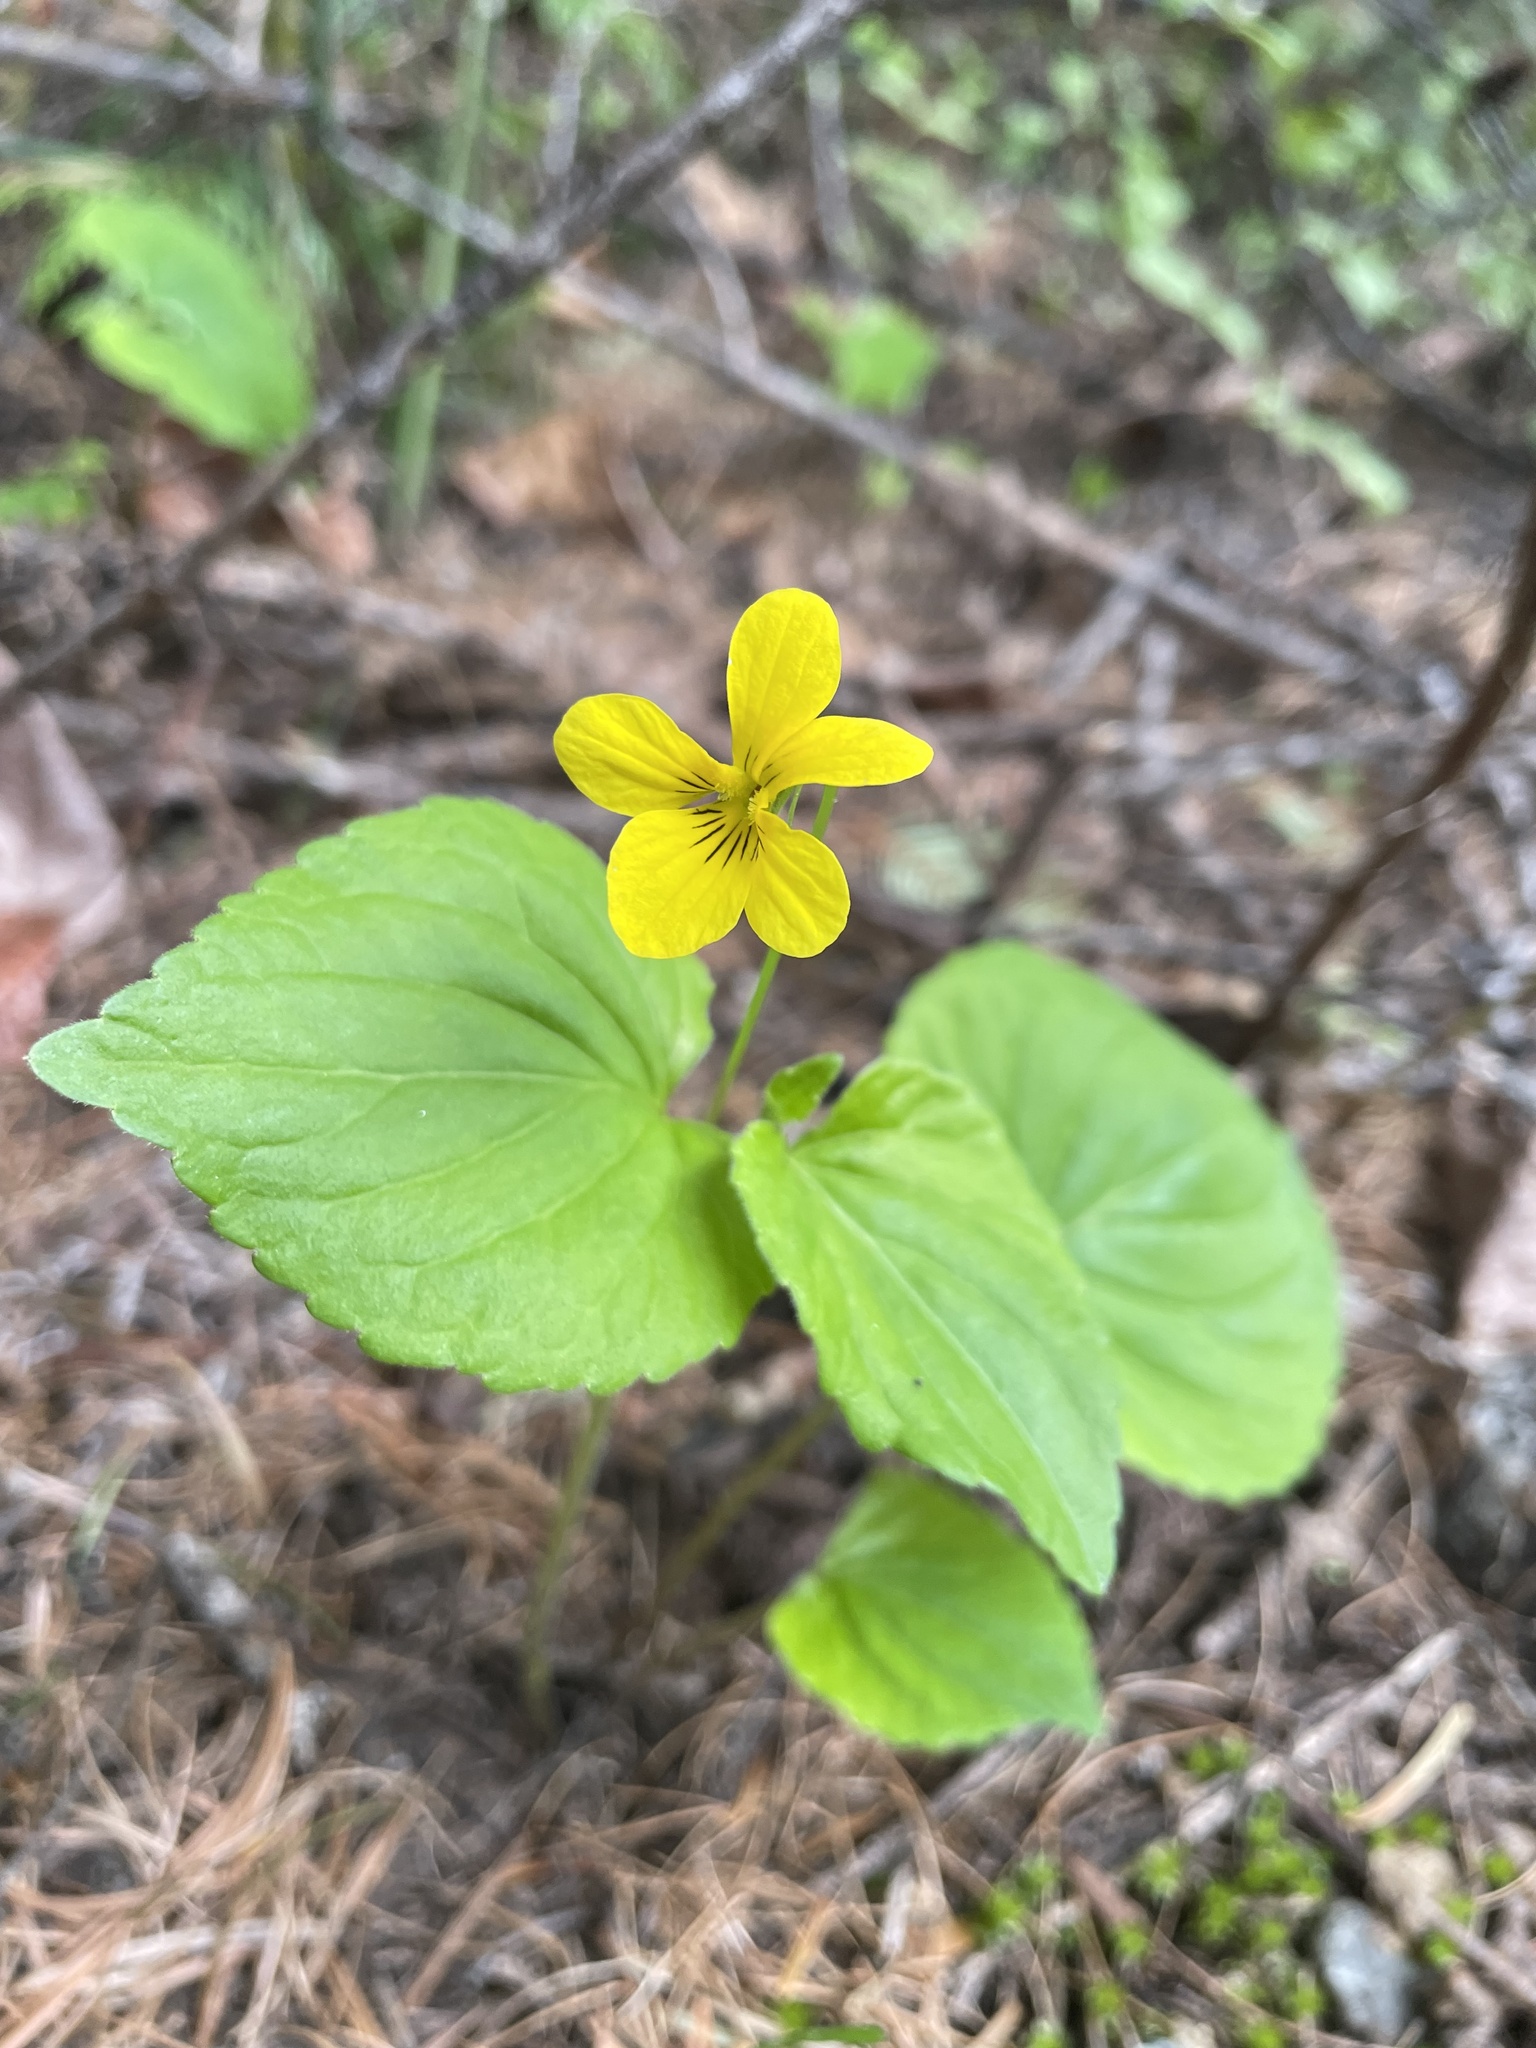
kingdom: Plantae
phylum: Tracheophyta
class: Magnoliopsida
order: Malpighiales
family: Violaceae
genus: Viola
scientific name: Viola glabella
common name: Stream violet
